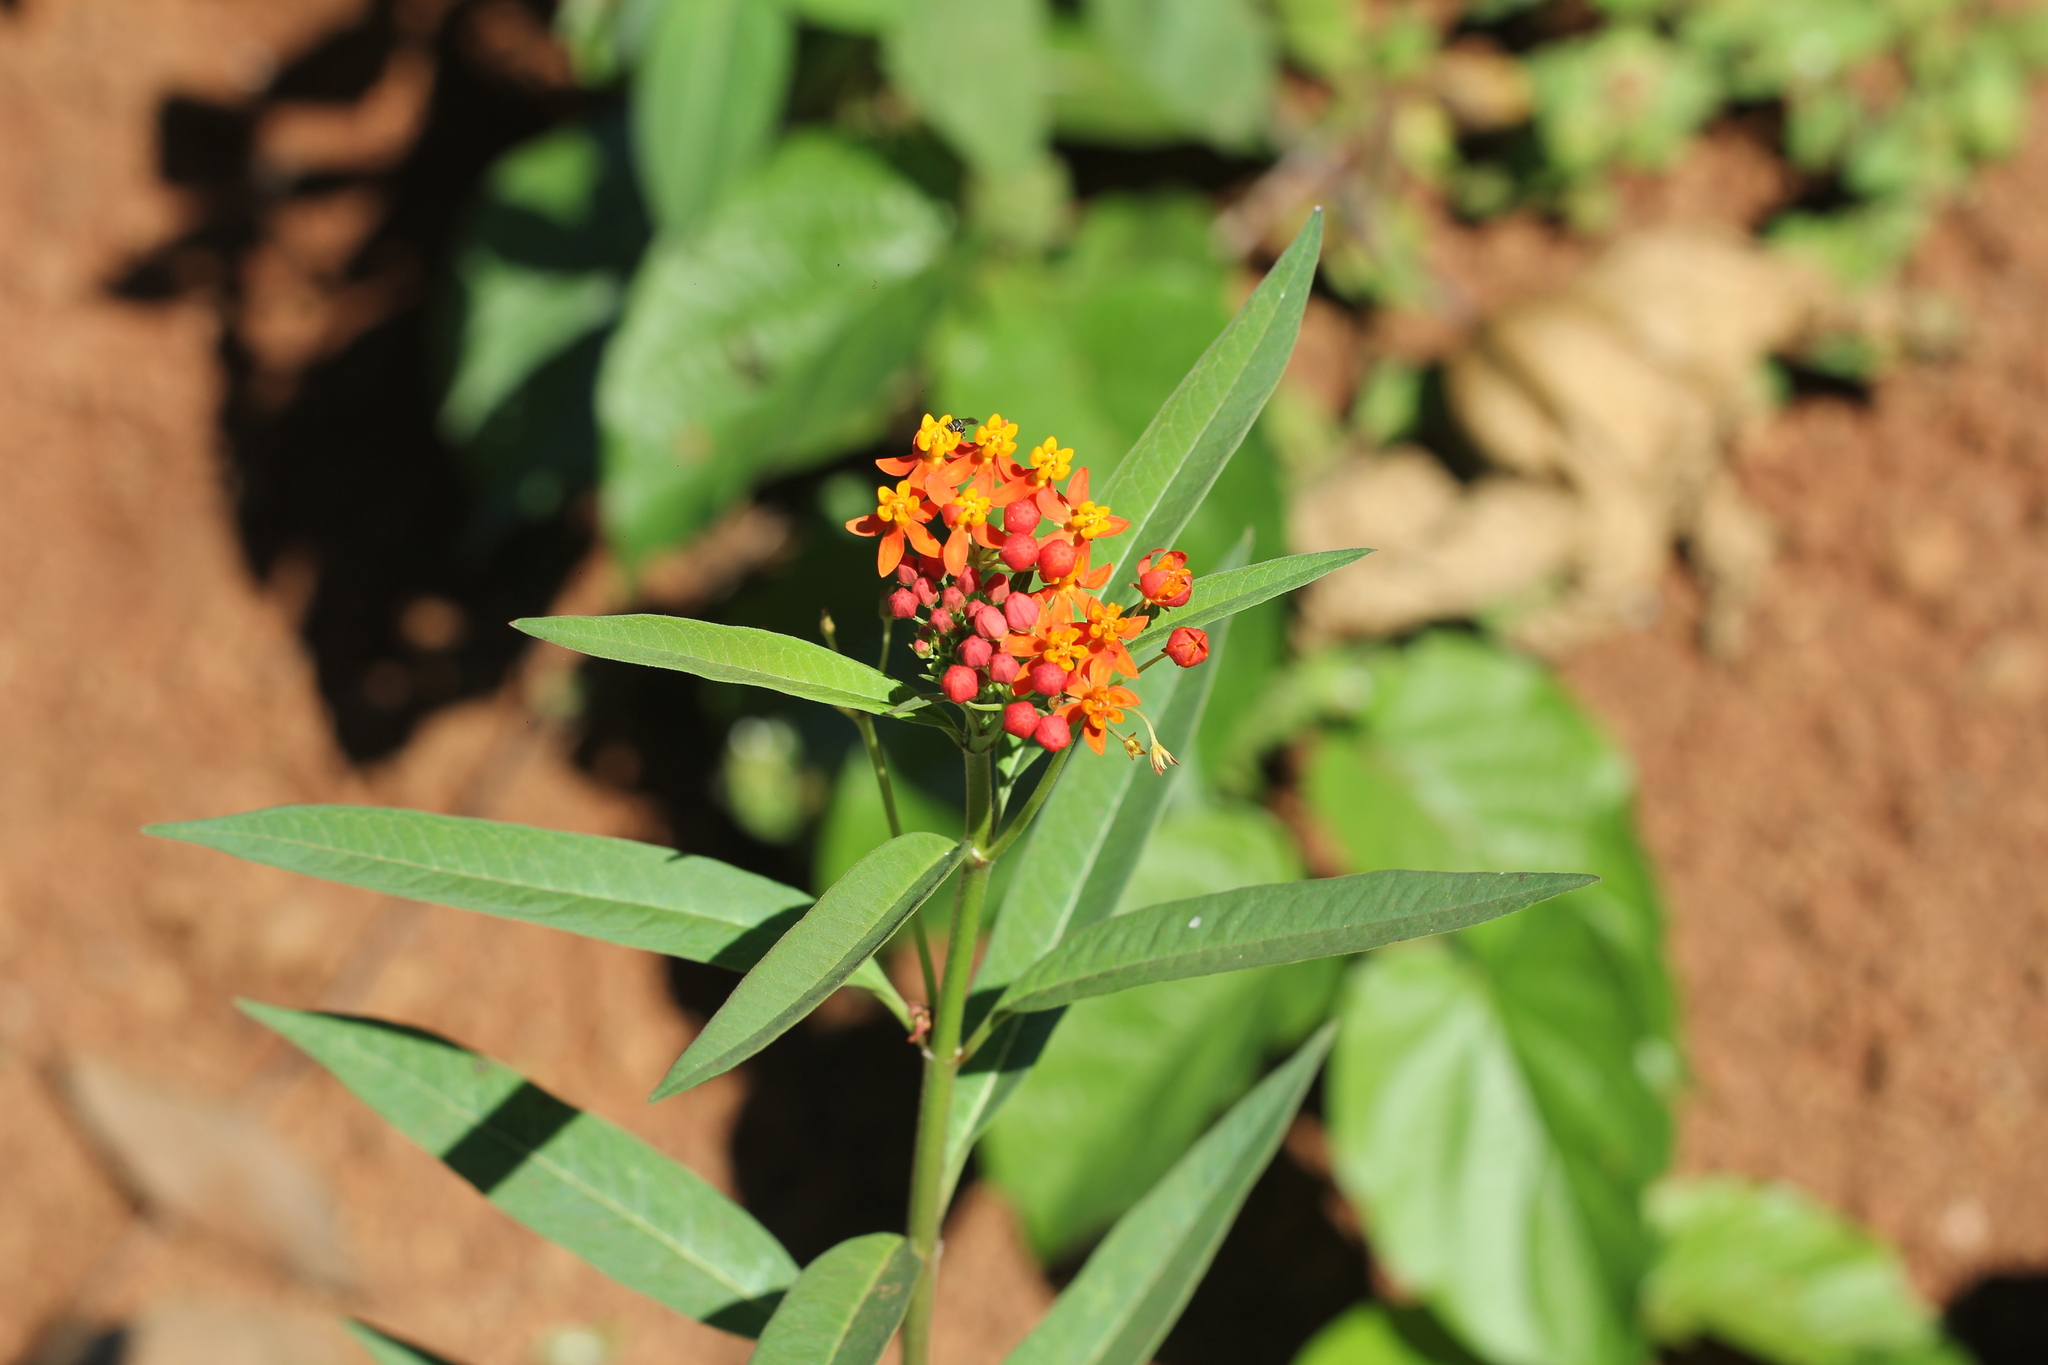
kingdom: Plantae
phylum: Tracheophyta
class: Magnoliopsida
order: Gentianales
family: Apocynaceae
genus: Asclepias
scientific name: Asclepias curassavica
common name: Bloodflower
